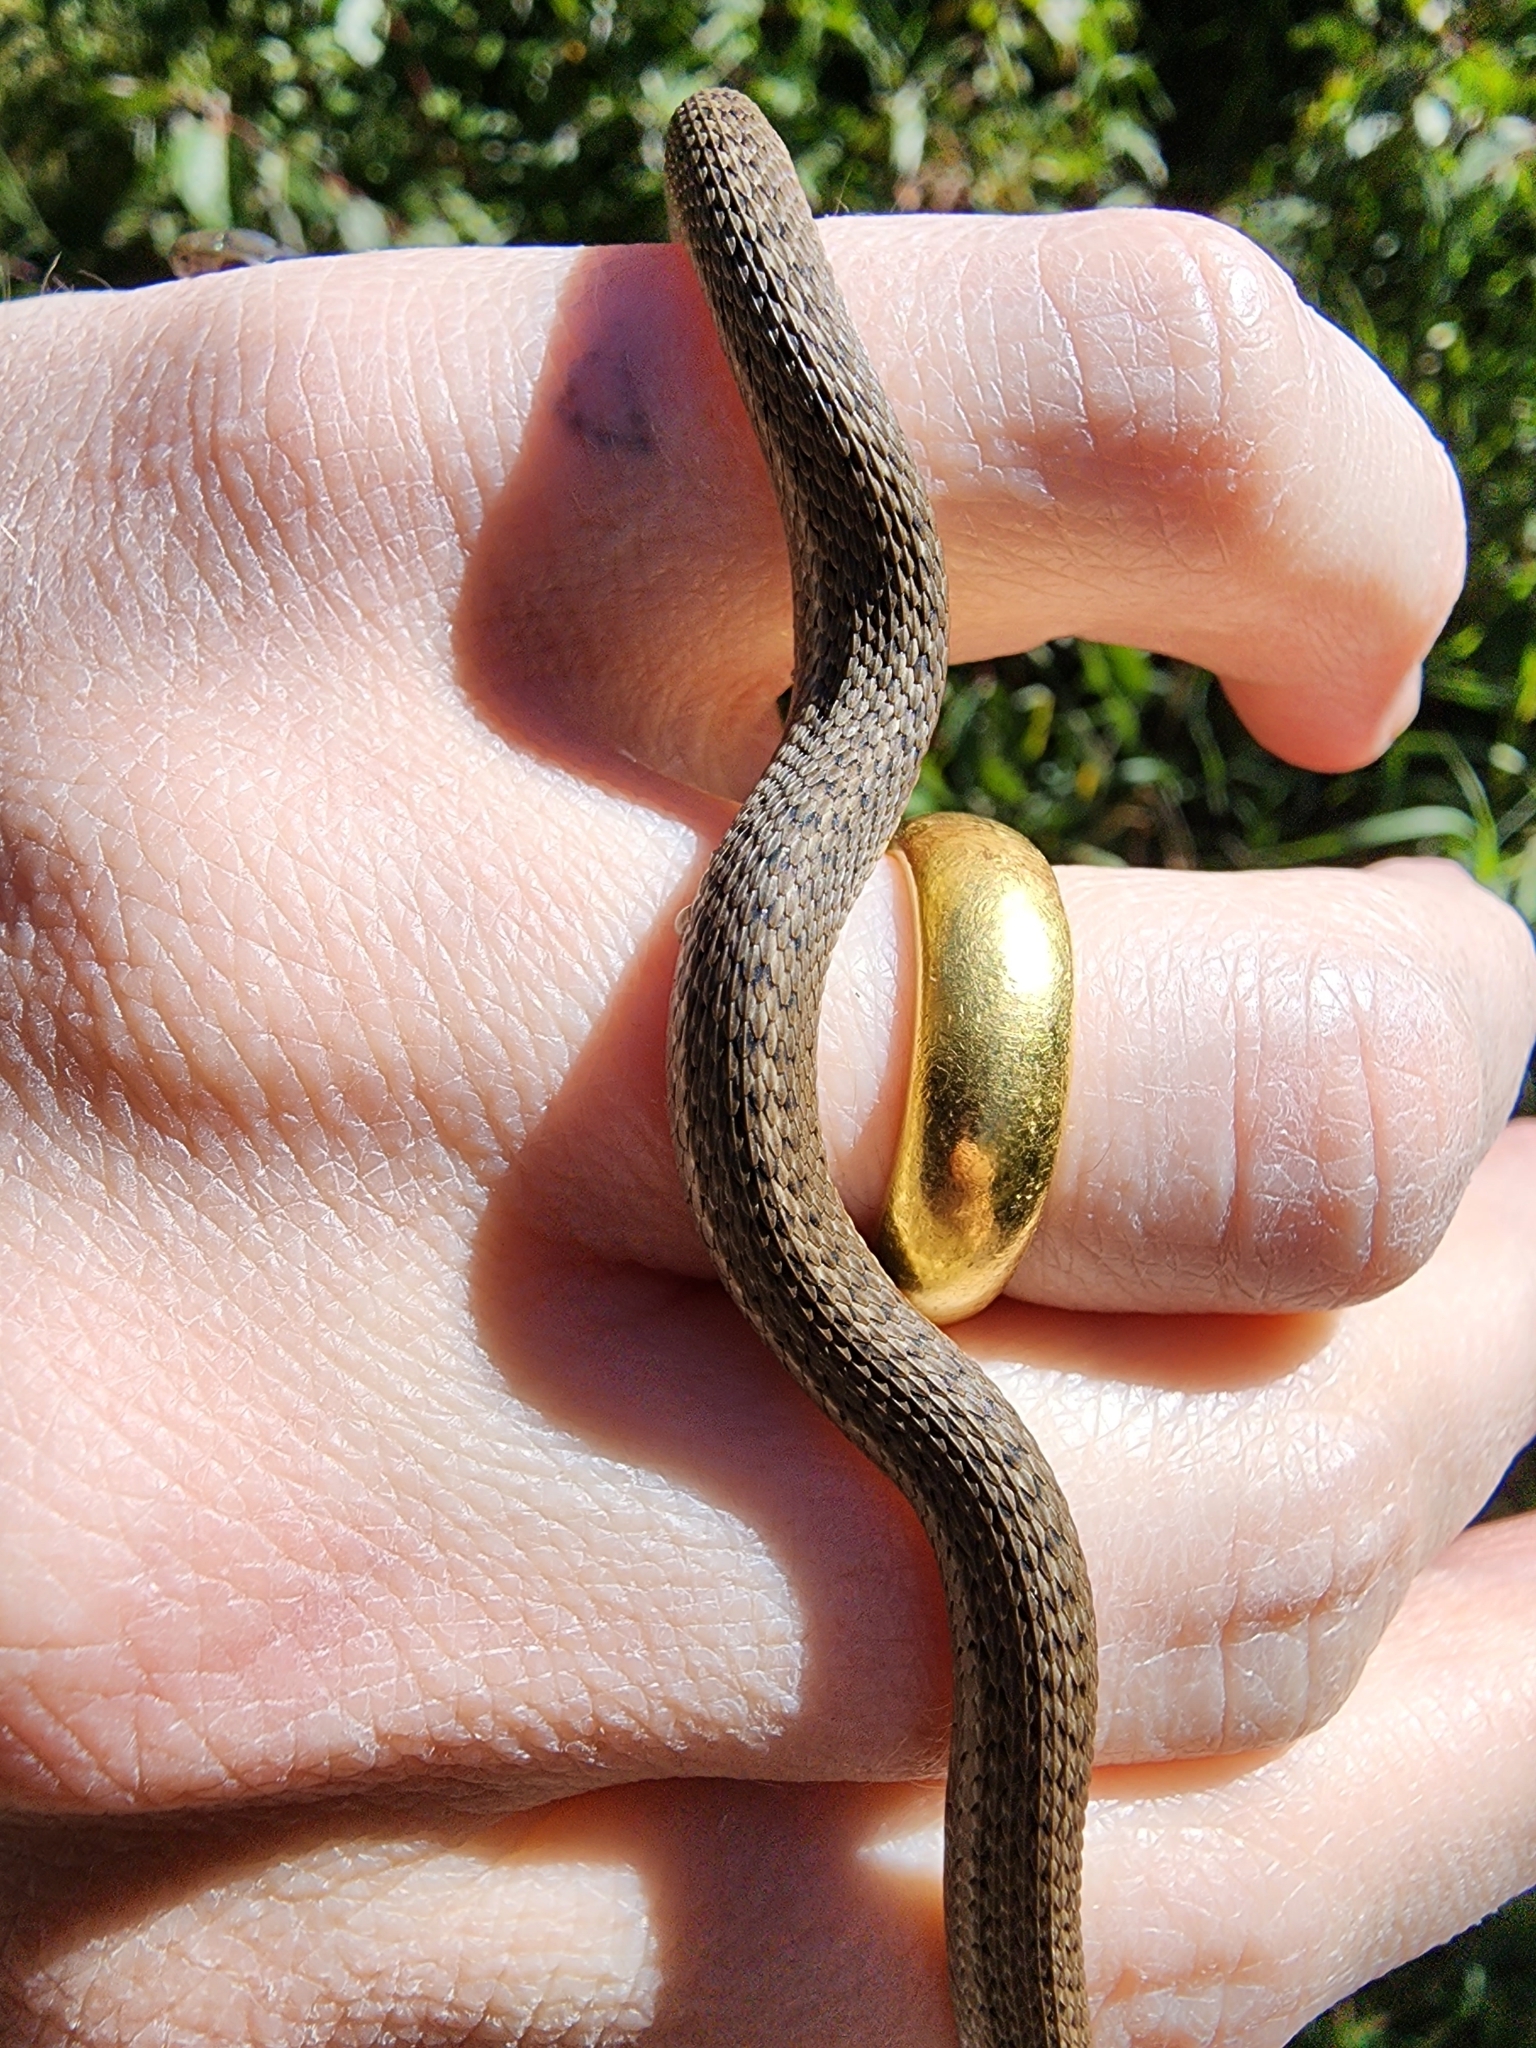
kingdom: Animalia
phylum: Chordata
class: Squamata
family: Colubridae
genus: Thamnophis
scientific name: Thamnophis elegans
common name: Western terrestrial garter snake
